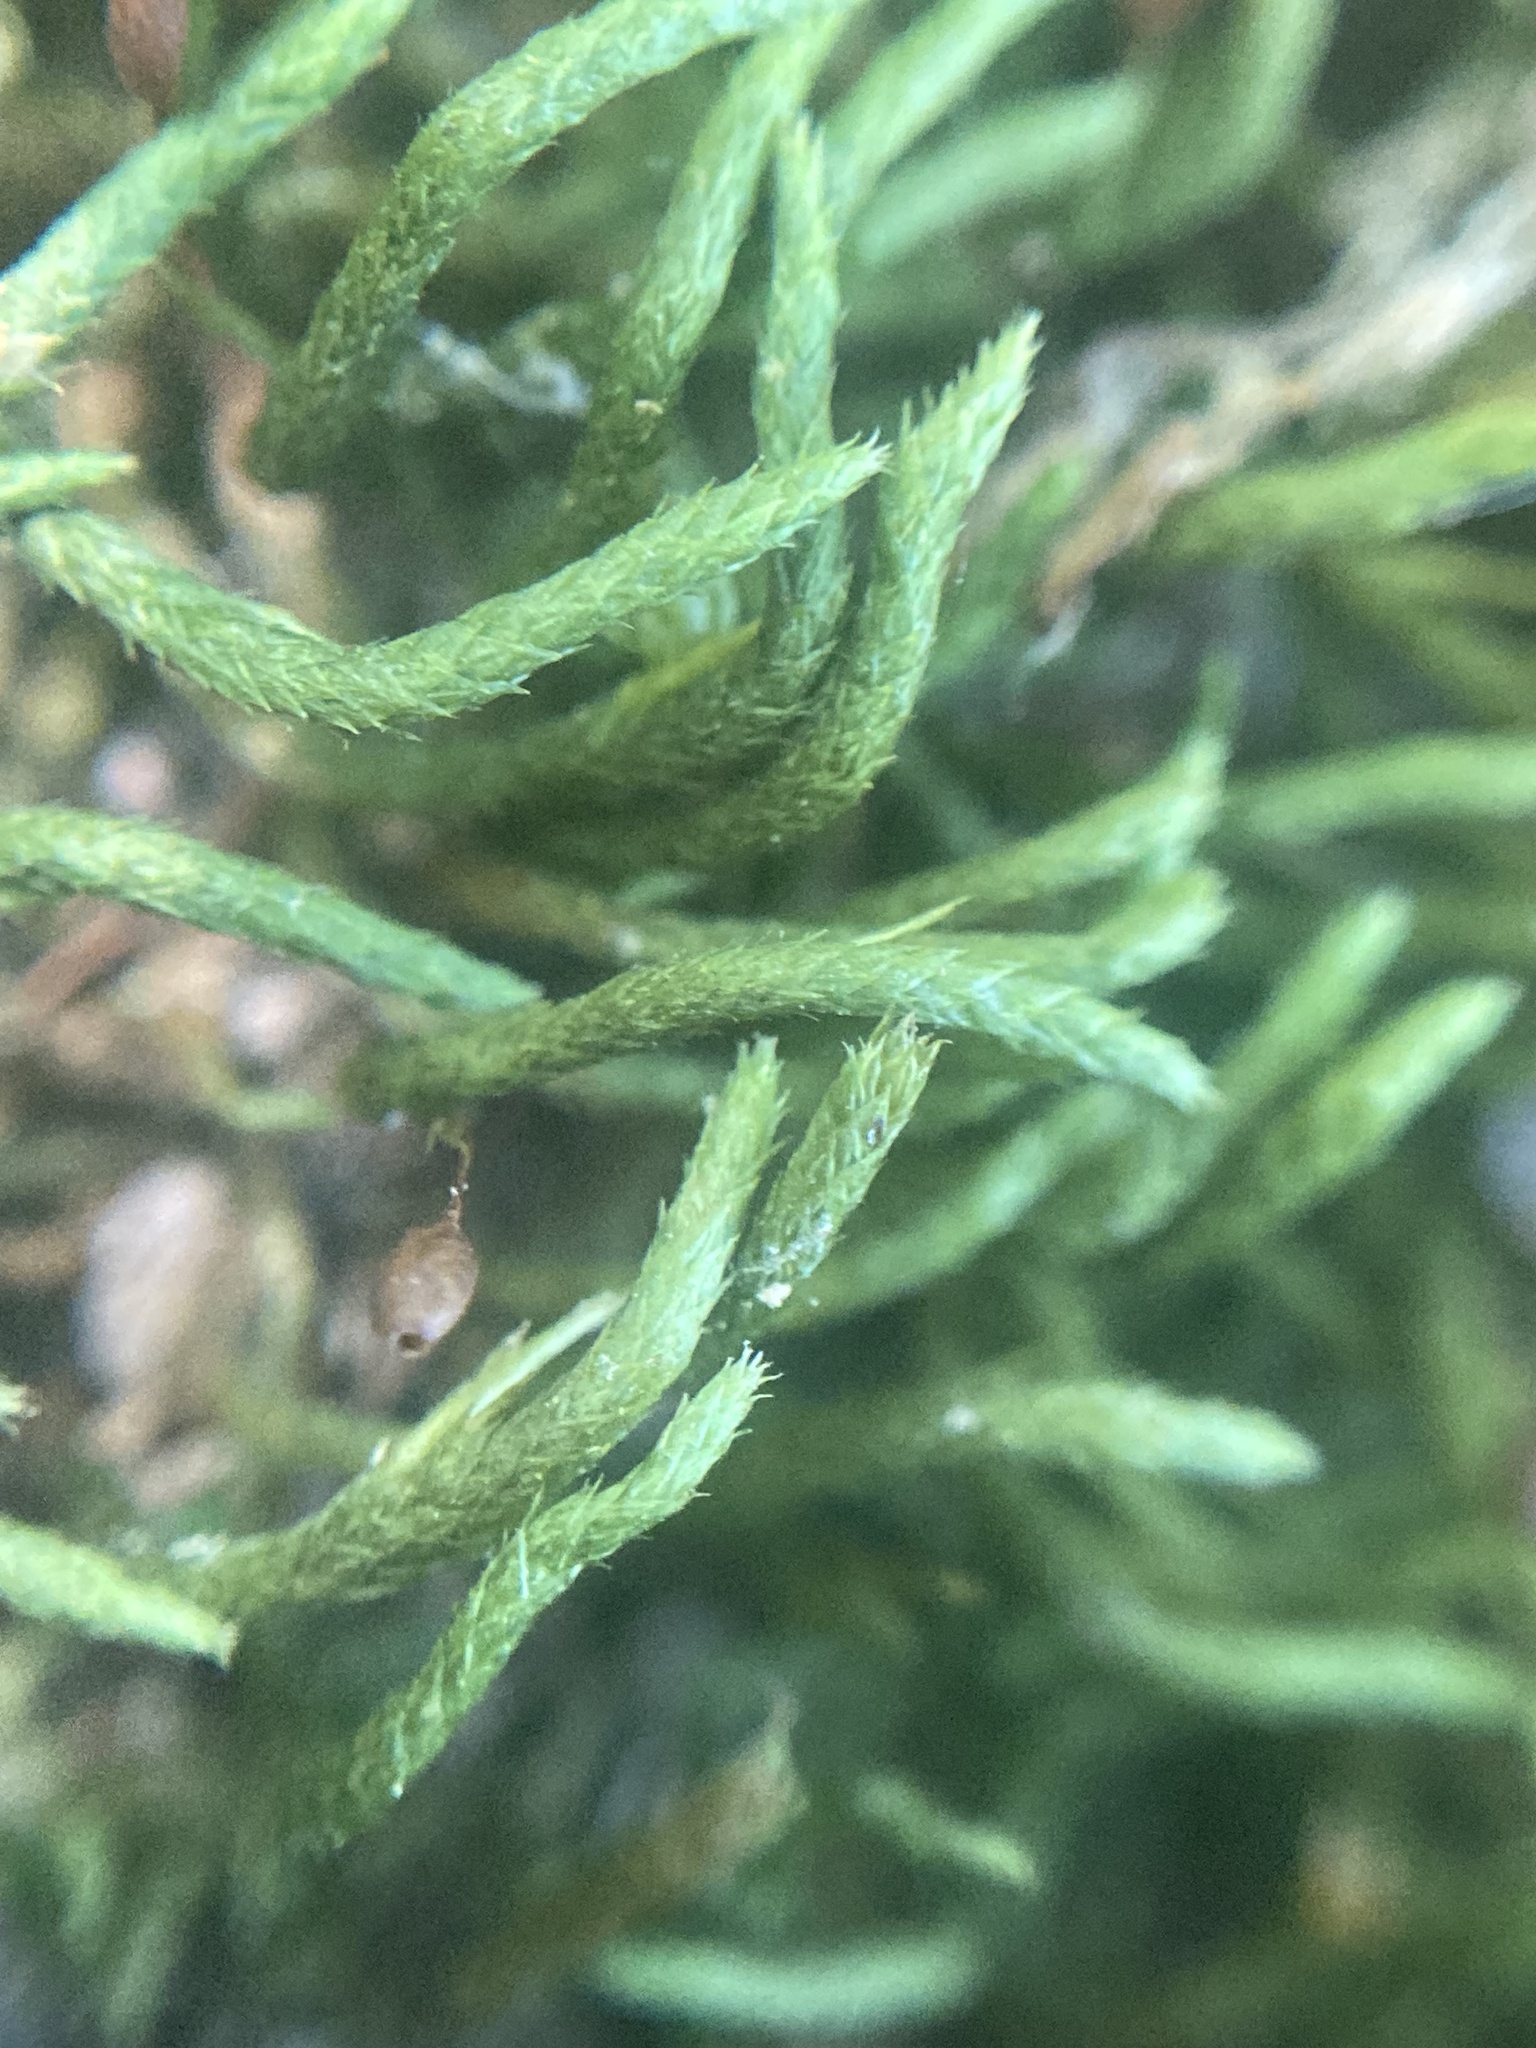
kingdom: Plantae
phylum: Bryophyta
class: Bryopsida
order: Hypnales
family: Leucodontaceae
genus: Leucodon
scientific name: Leucodon julaceus
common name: Smooth hook moss
